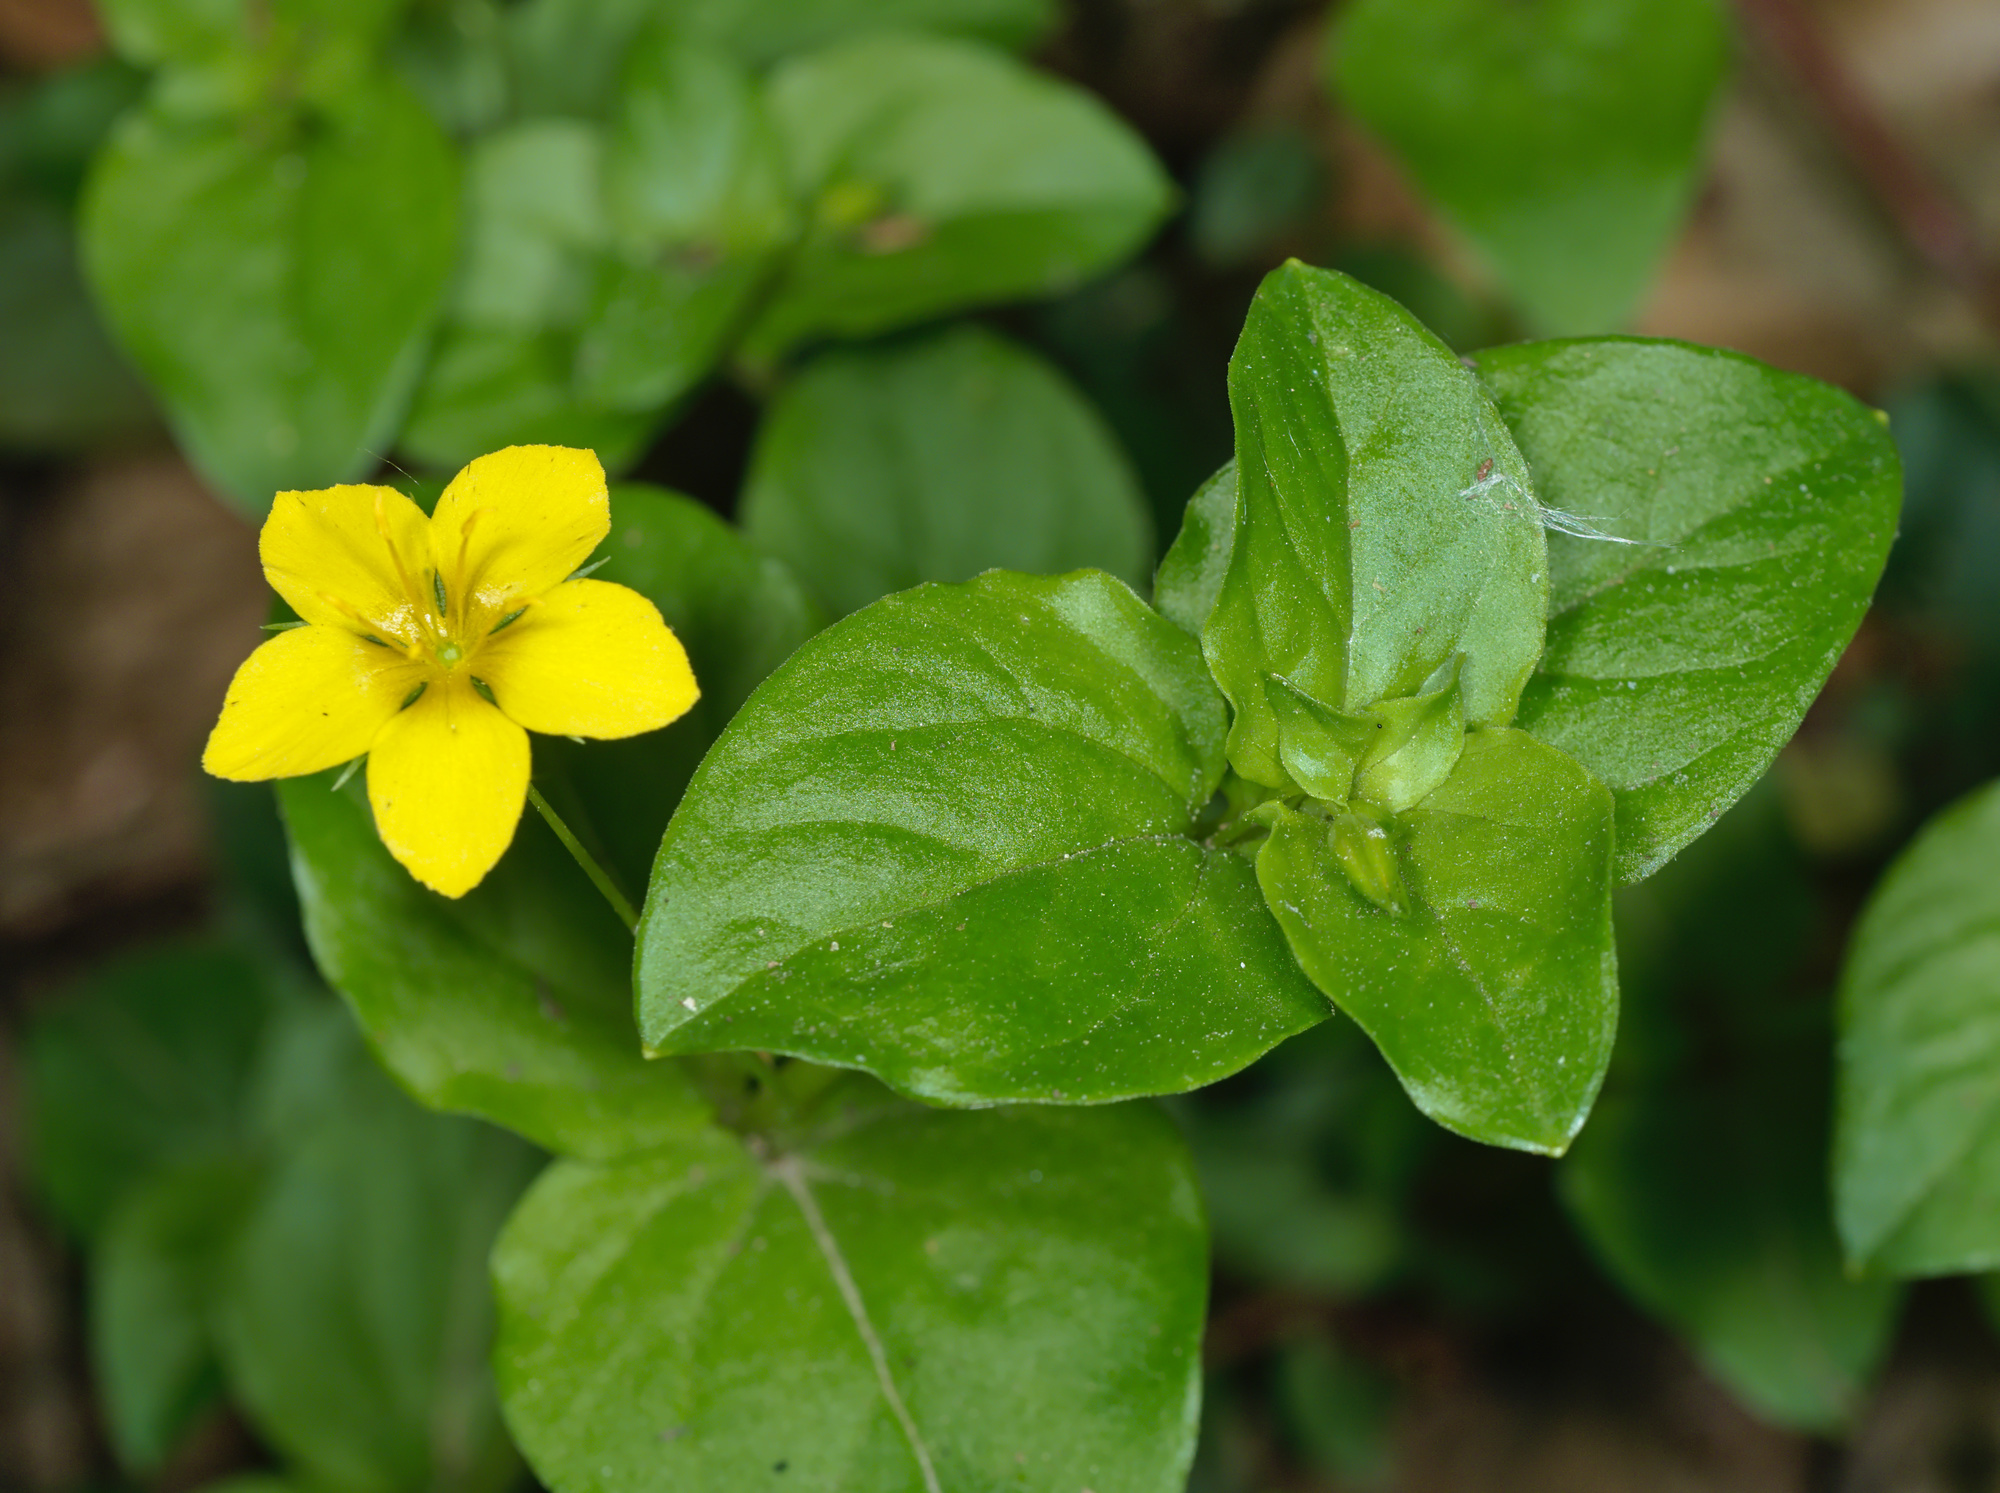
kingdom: Plantae
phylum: Tracheophyta
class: Magnoliopsida
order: Ericales
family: Primulaceae
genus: Lysimachia
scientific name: Lysimachia nemorum
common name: Yellow pimpernel
